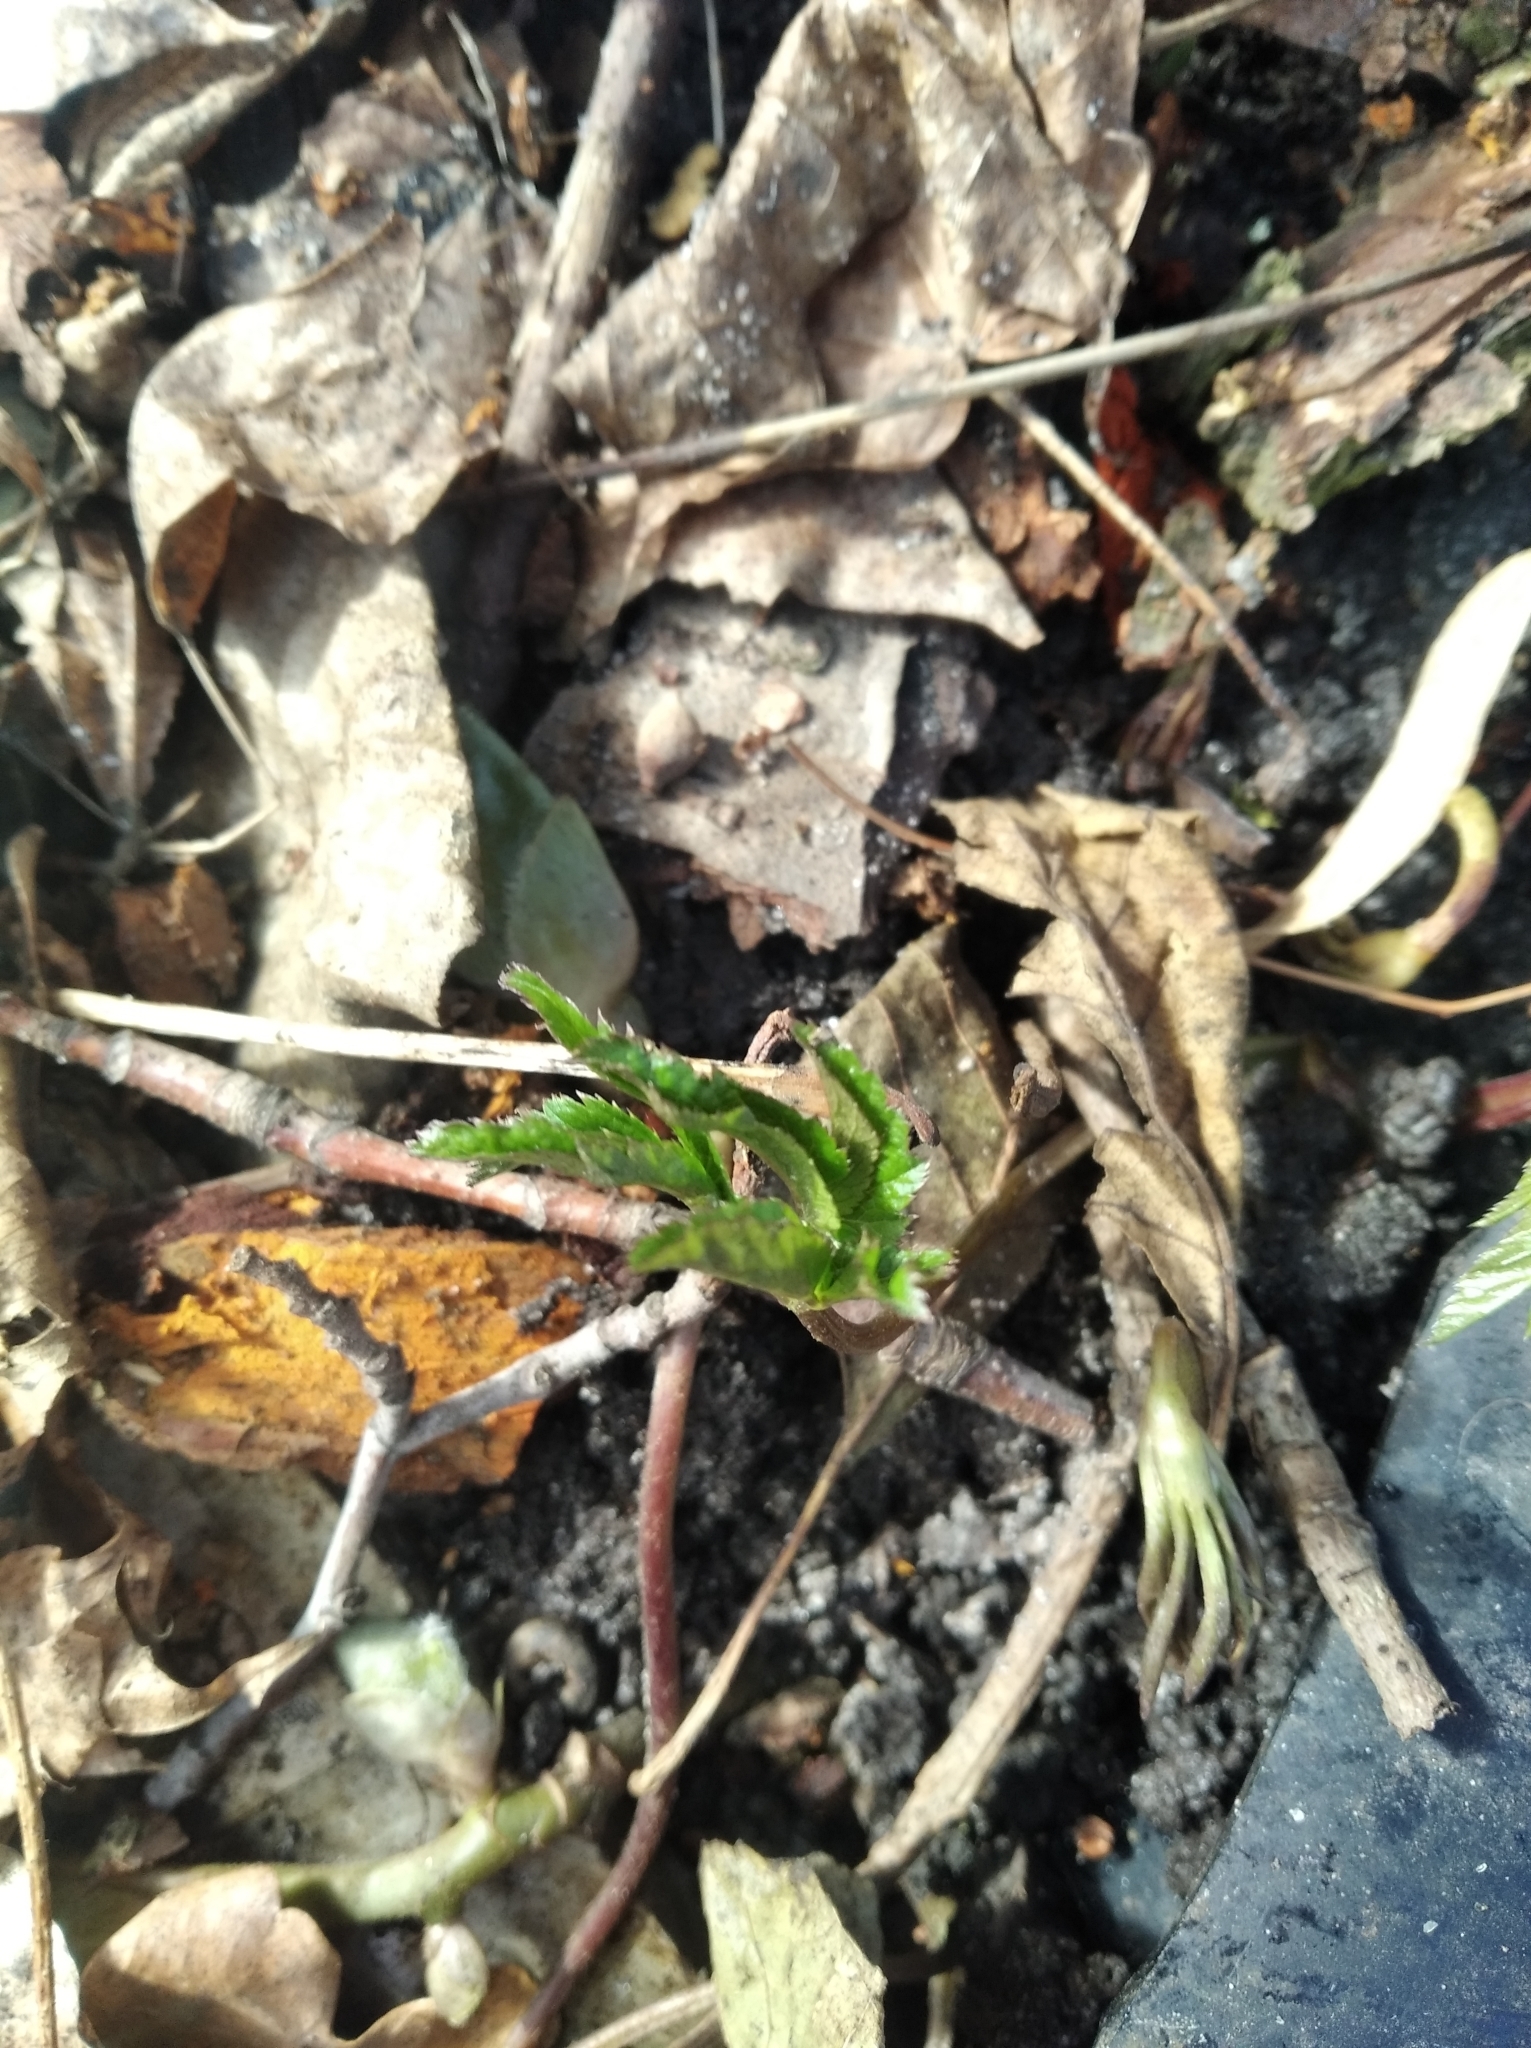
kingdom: Plantae
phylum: Tracheophyta
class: Magnoliopsida
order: Ranunculales
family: Ranunculaceae
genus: Anemone
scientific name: Anemone ranunculoides
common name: Yellow anemone
